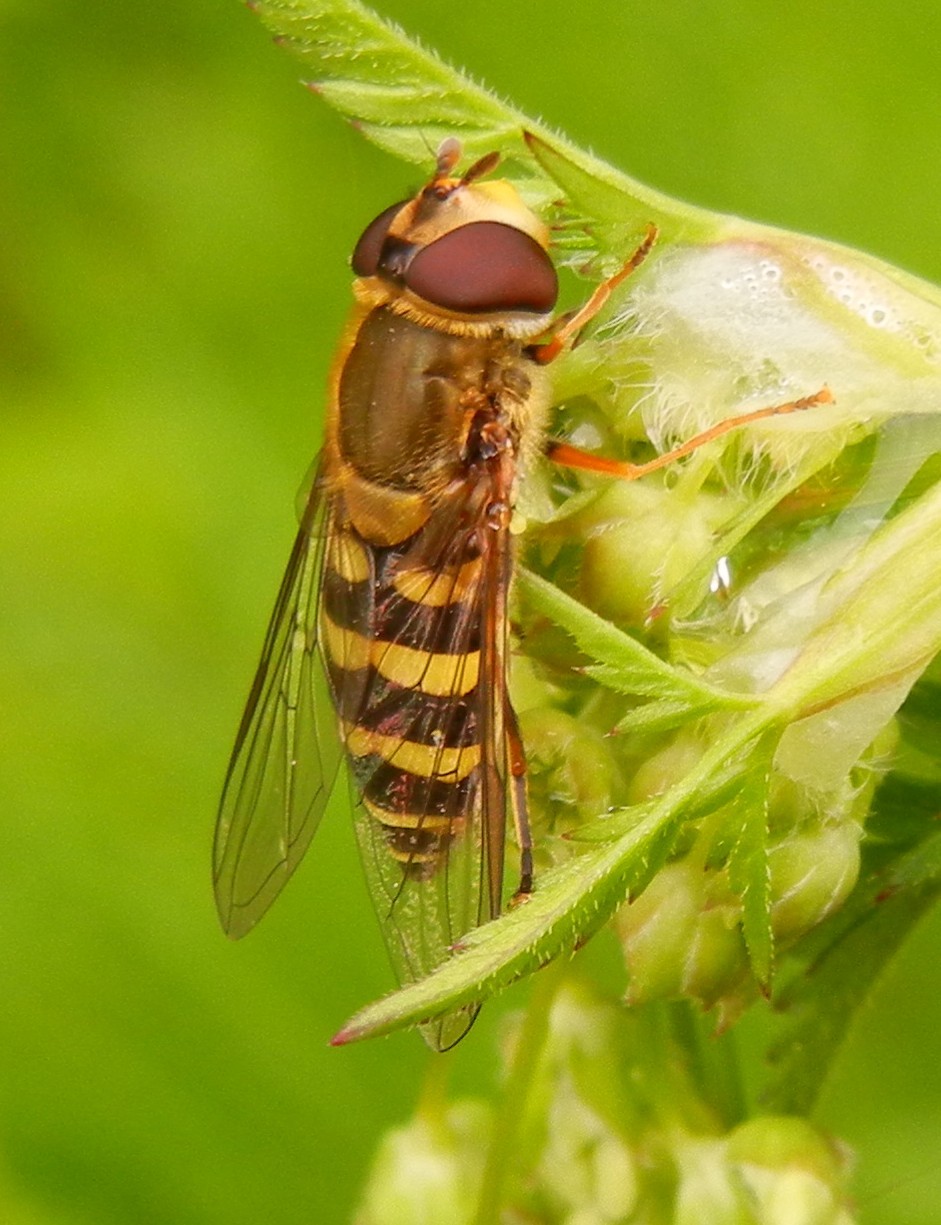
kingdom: Animalia
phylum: Arthropoda
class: Insecta
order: Diptera
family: Syrphidae
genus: Syrphus
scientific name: Syrphus
